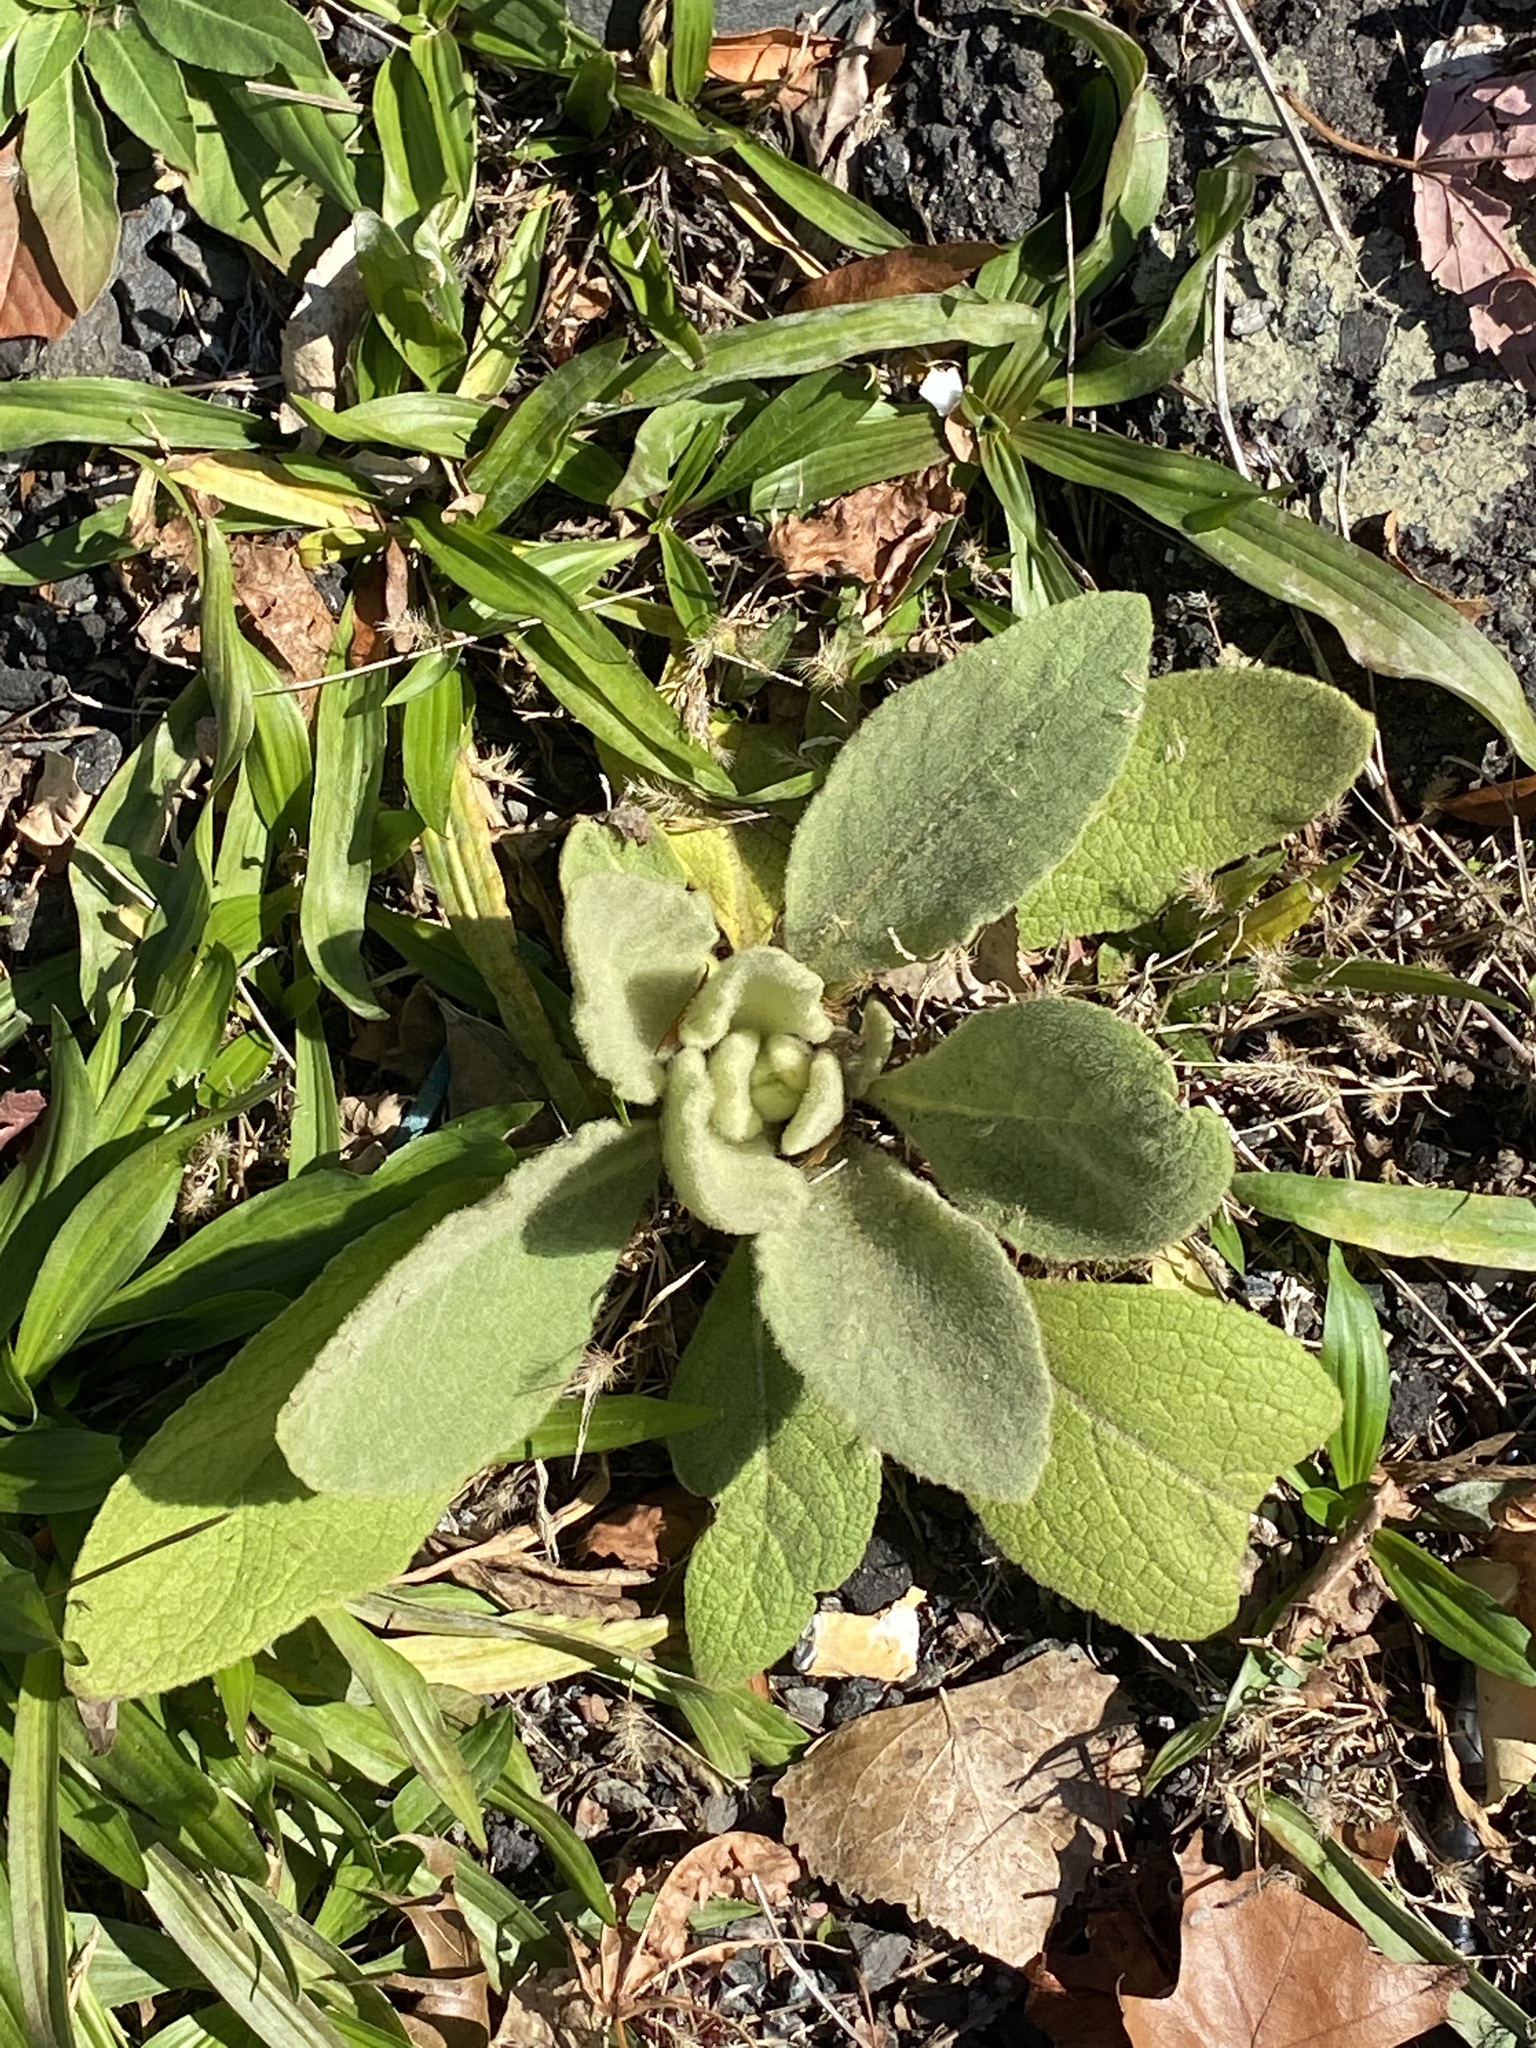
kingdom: Plantae
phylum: Tracheophyta
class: Magnoliopsida
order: Lamiales
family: Scrophulariaceae
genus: Verbascum
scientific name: Verbascum thapsus
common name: Common mullein
